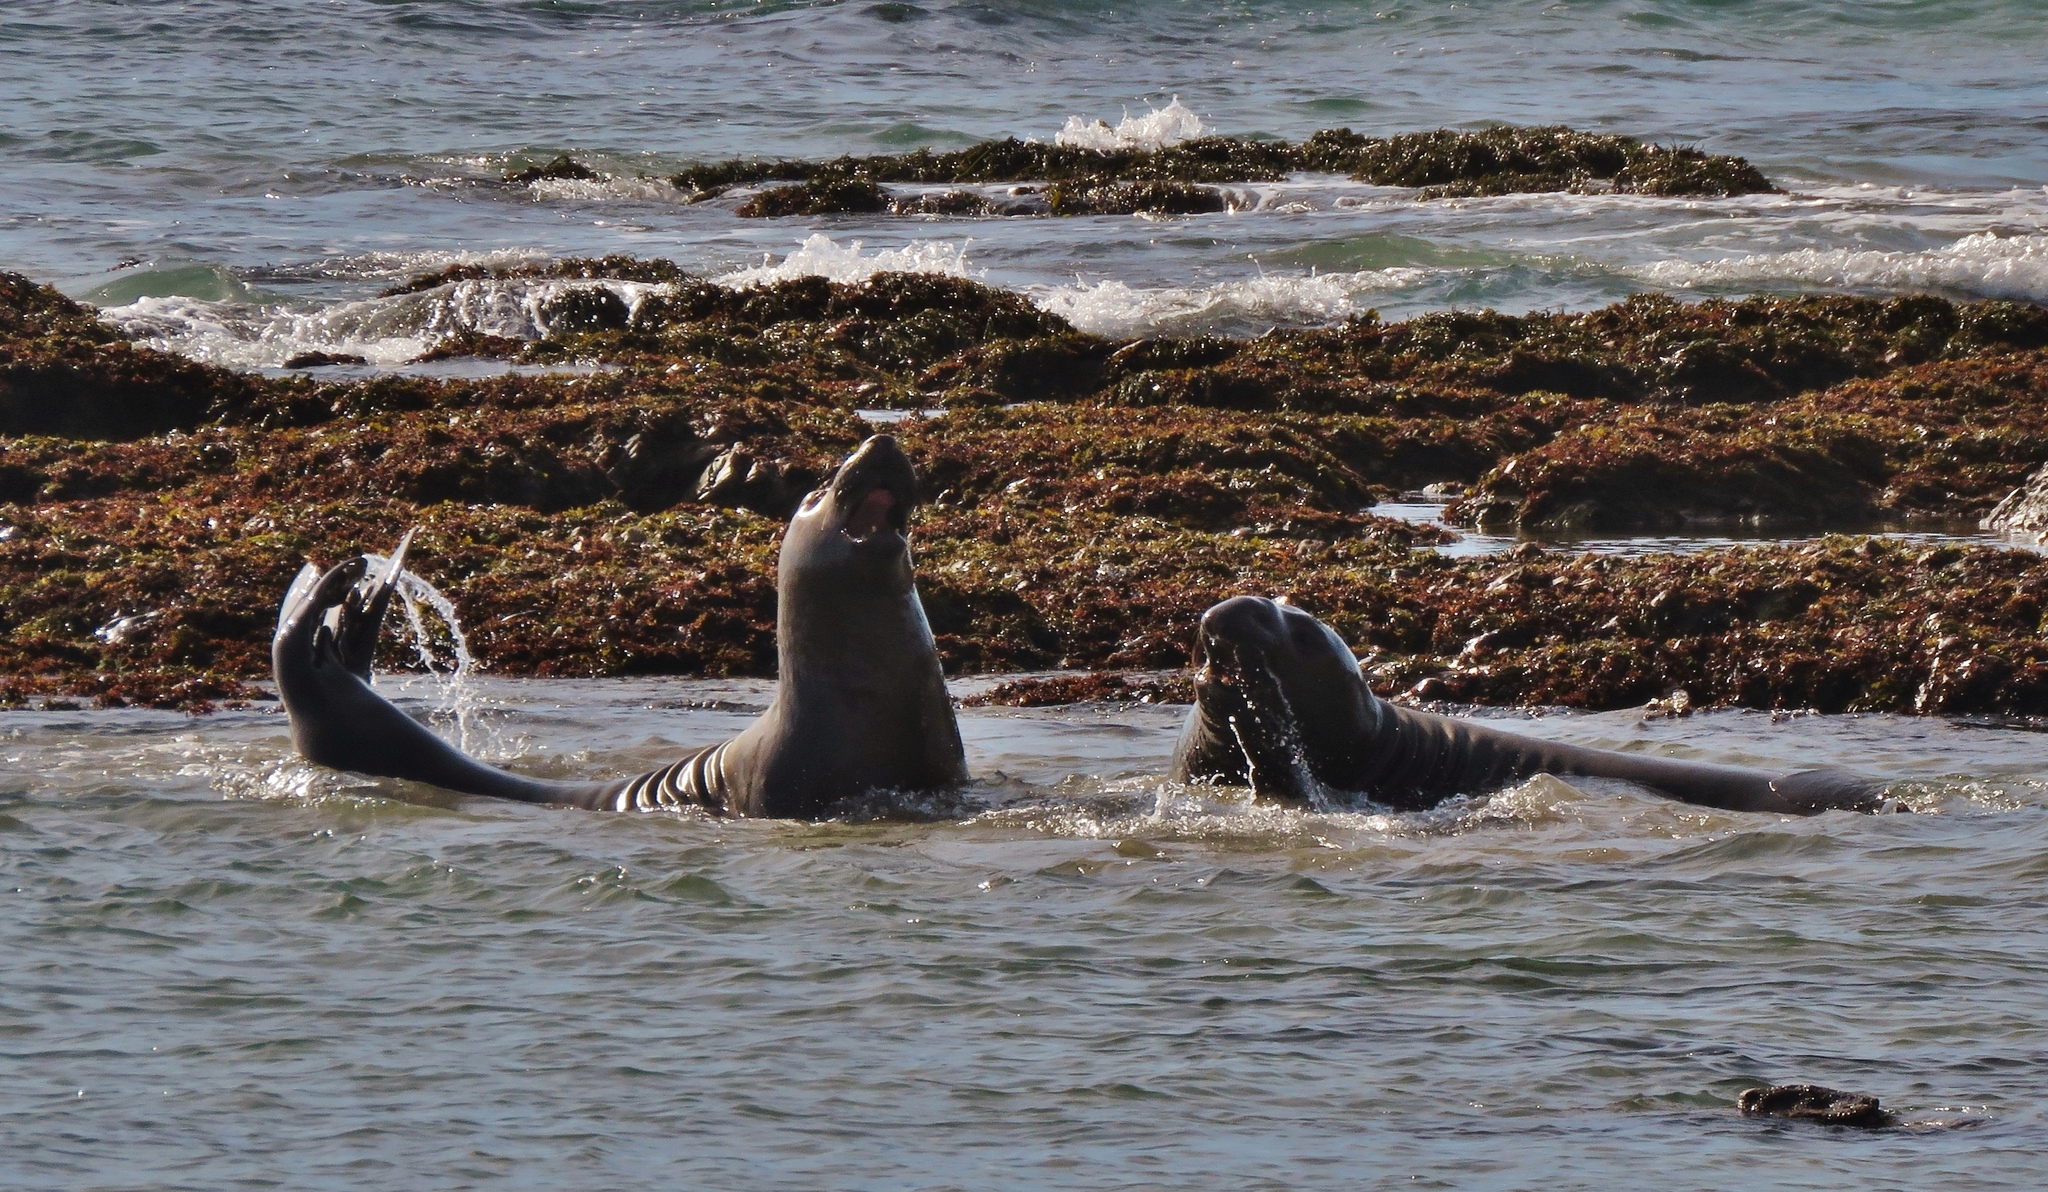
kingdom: Animalia
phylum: Chordata
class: Mammalia
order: Carnivora
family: Phocidae
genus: Mirounga
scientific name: Mirounga angustirostris
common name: Northern elephant seal
